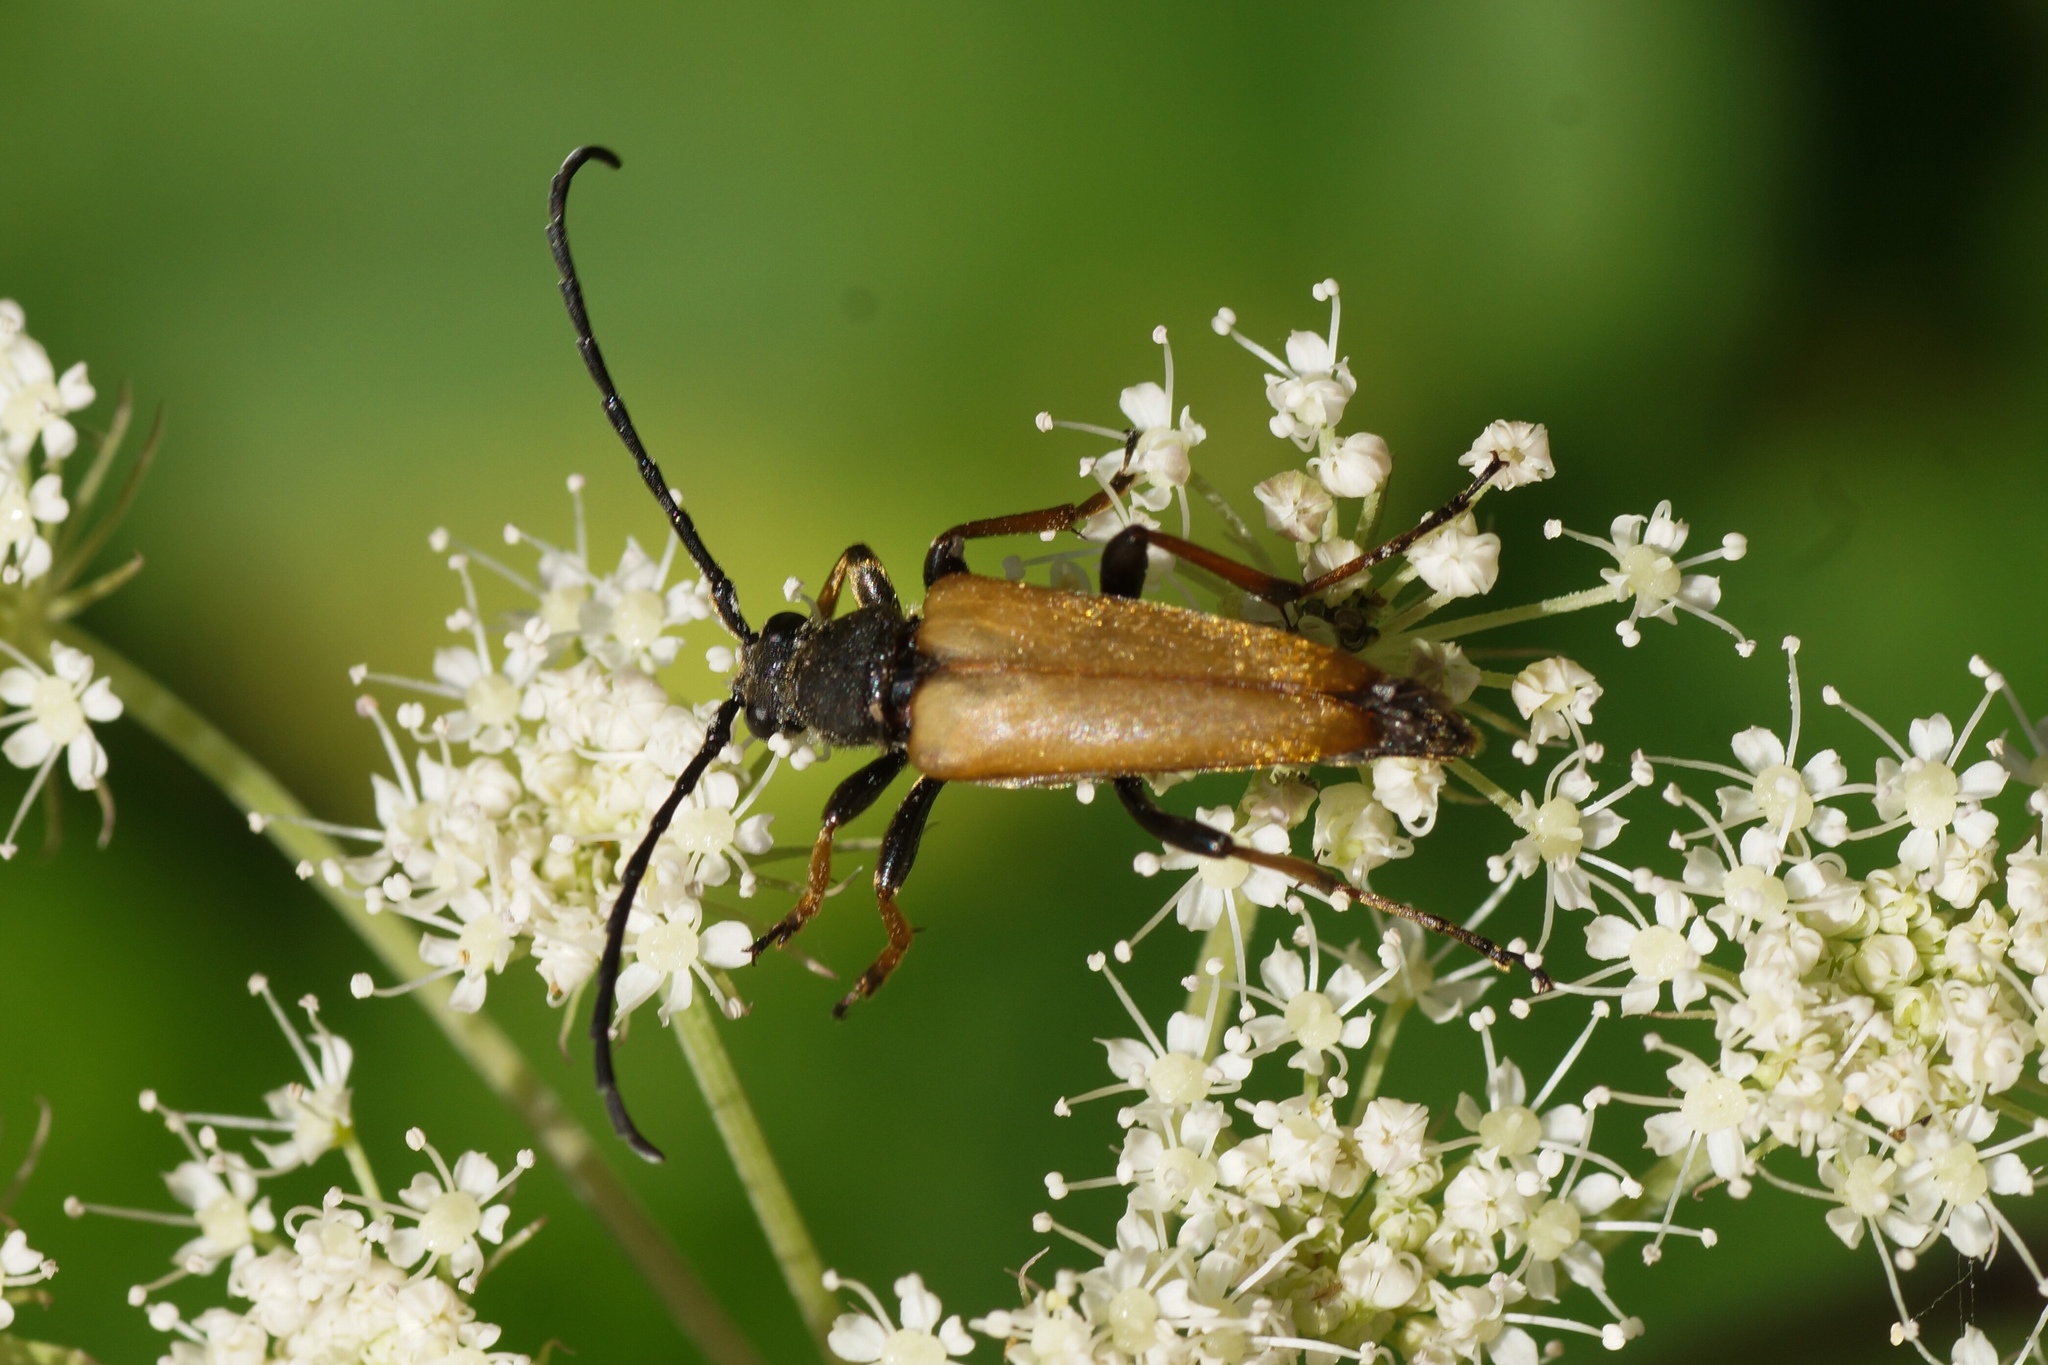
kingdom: Animalia
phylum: Arthropoda
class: Insecta
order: Coleoptera
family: Cerambycidae
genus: Stictoleptura
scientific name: Stictoleptura rubra
